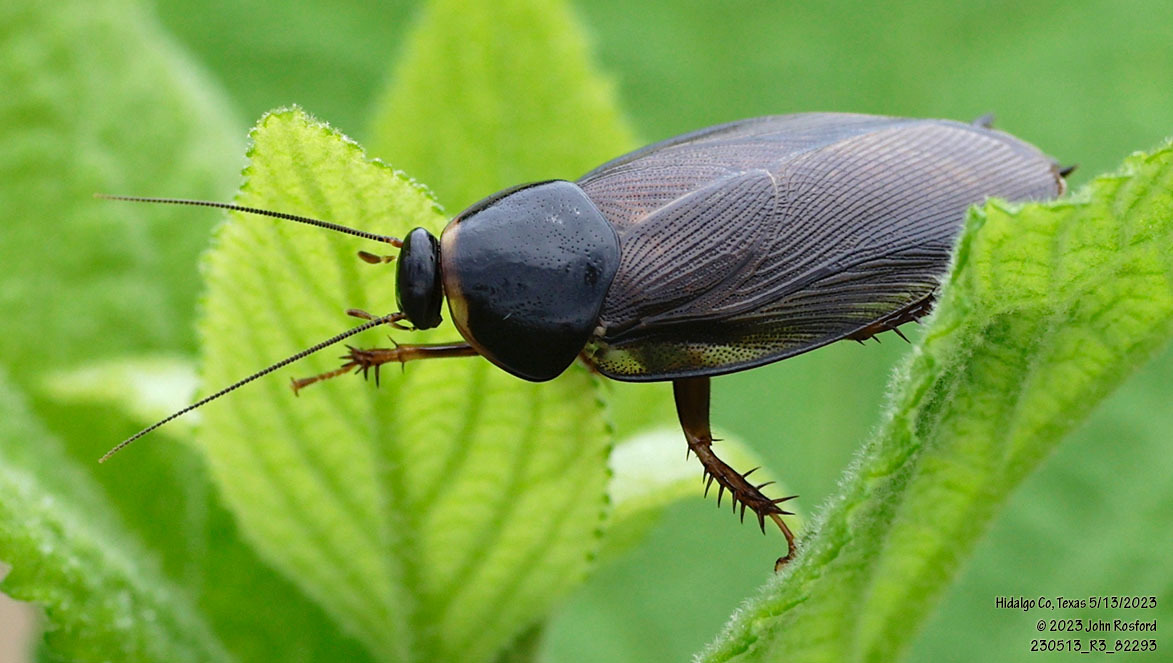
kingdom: Animalia
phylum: Arthropoda
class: Insecta
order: Blattodea
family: Blaberidae
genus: Pycnoscelus
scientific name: Pycnoscelus surinamensis
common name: Surinam cockroach
